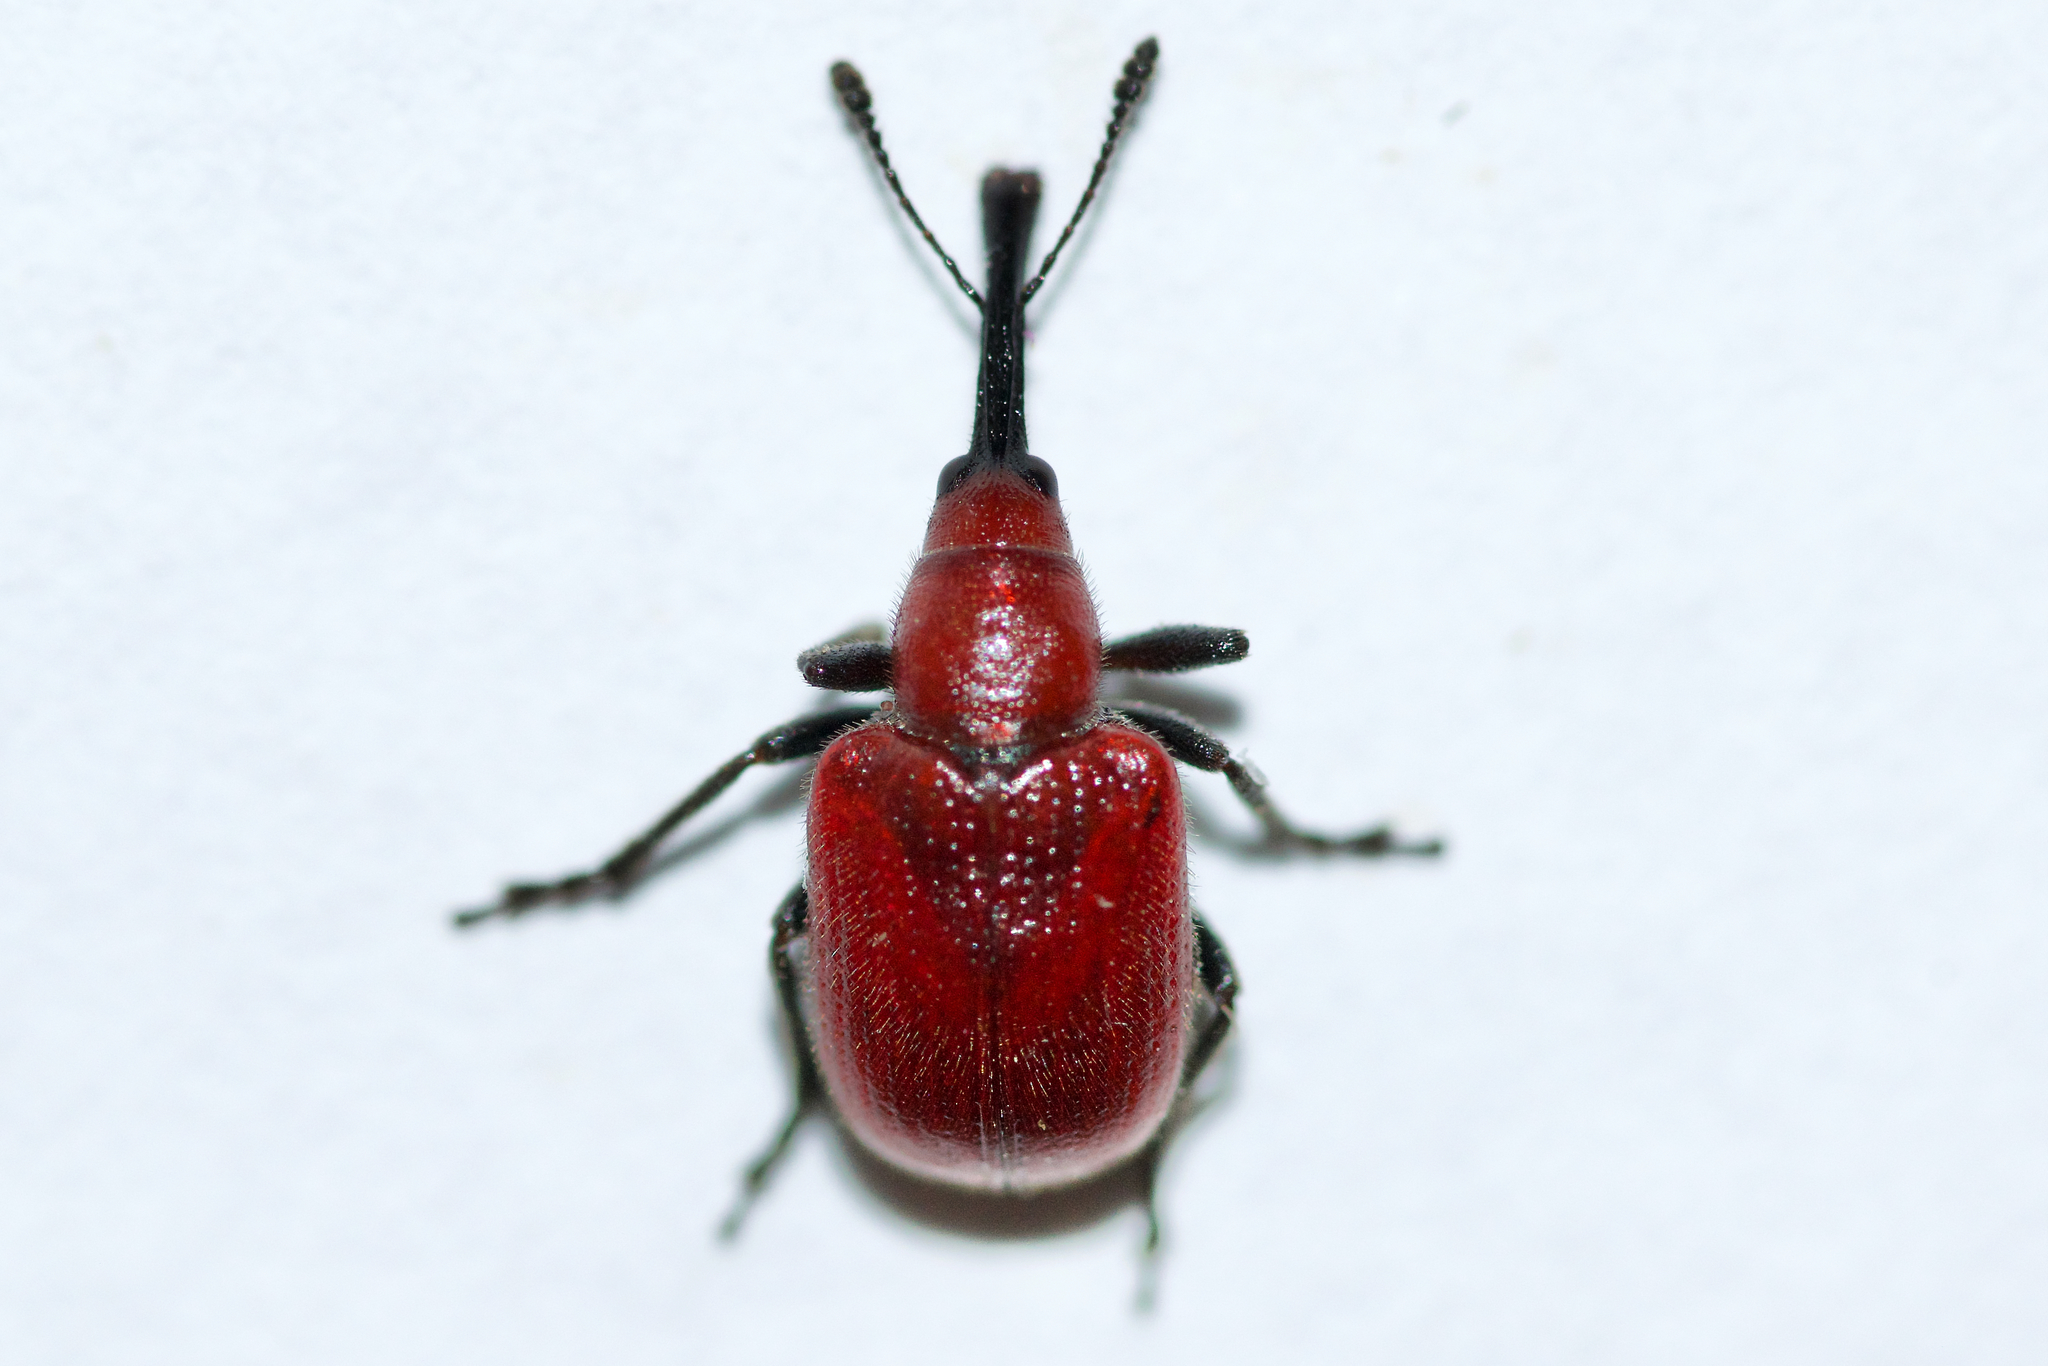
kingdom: Animalia
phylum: Arthropoda
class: Insecta
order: Coleoptera
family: Attelabidae
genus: Merhynchites
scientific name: Merhynchites bicolor
